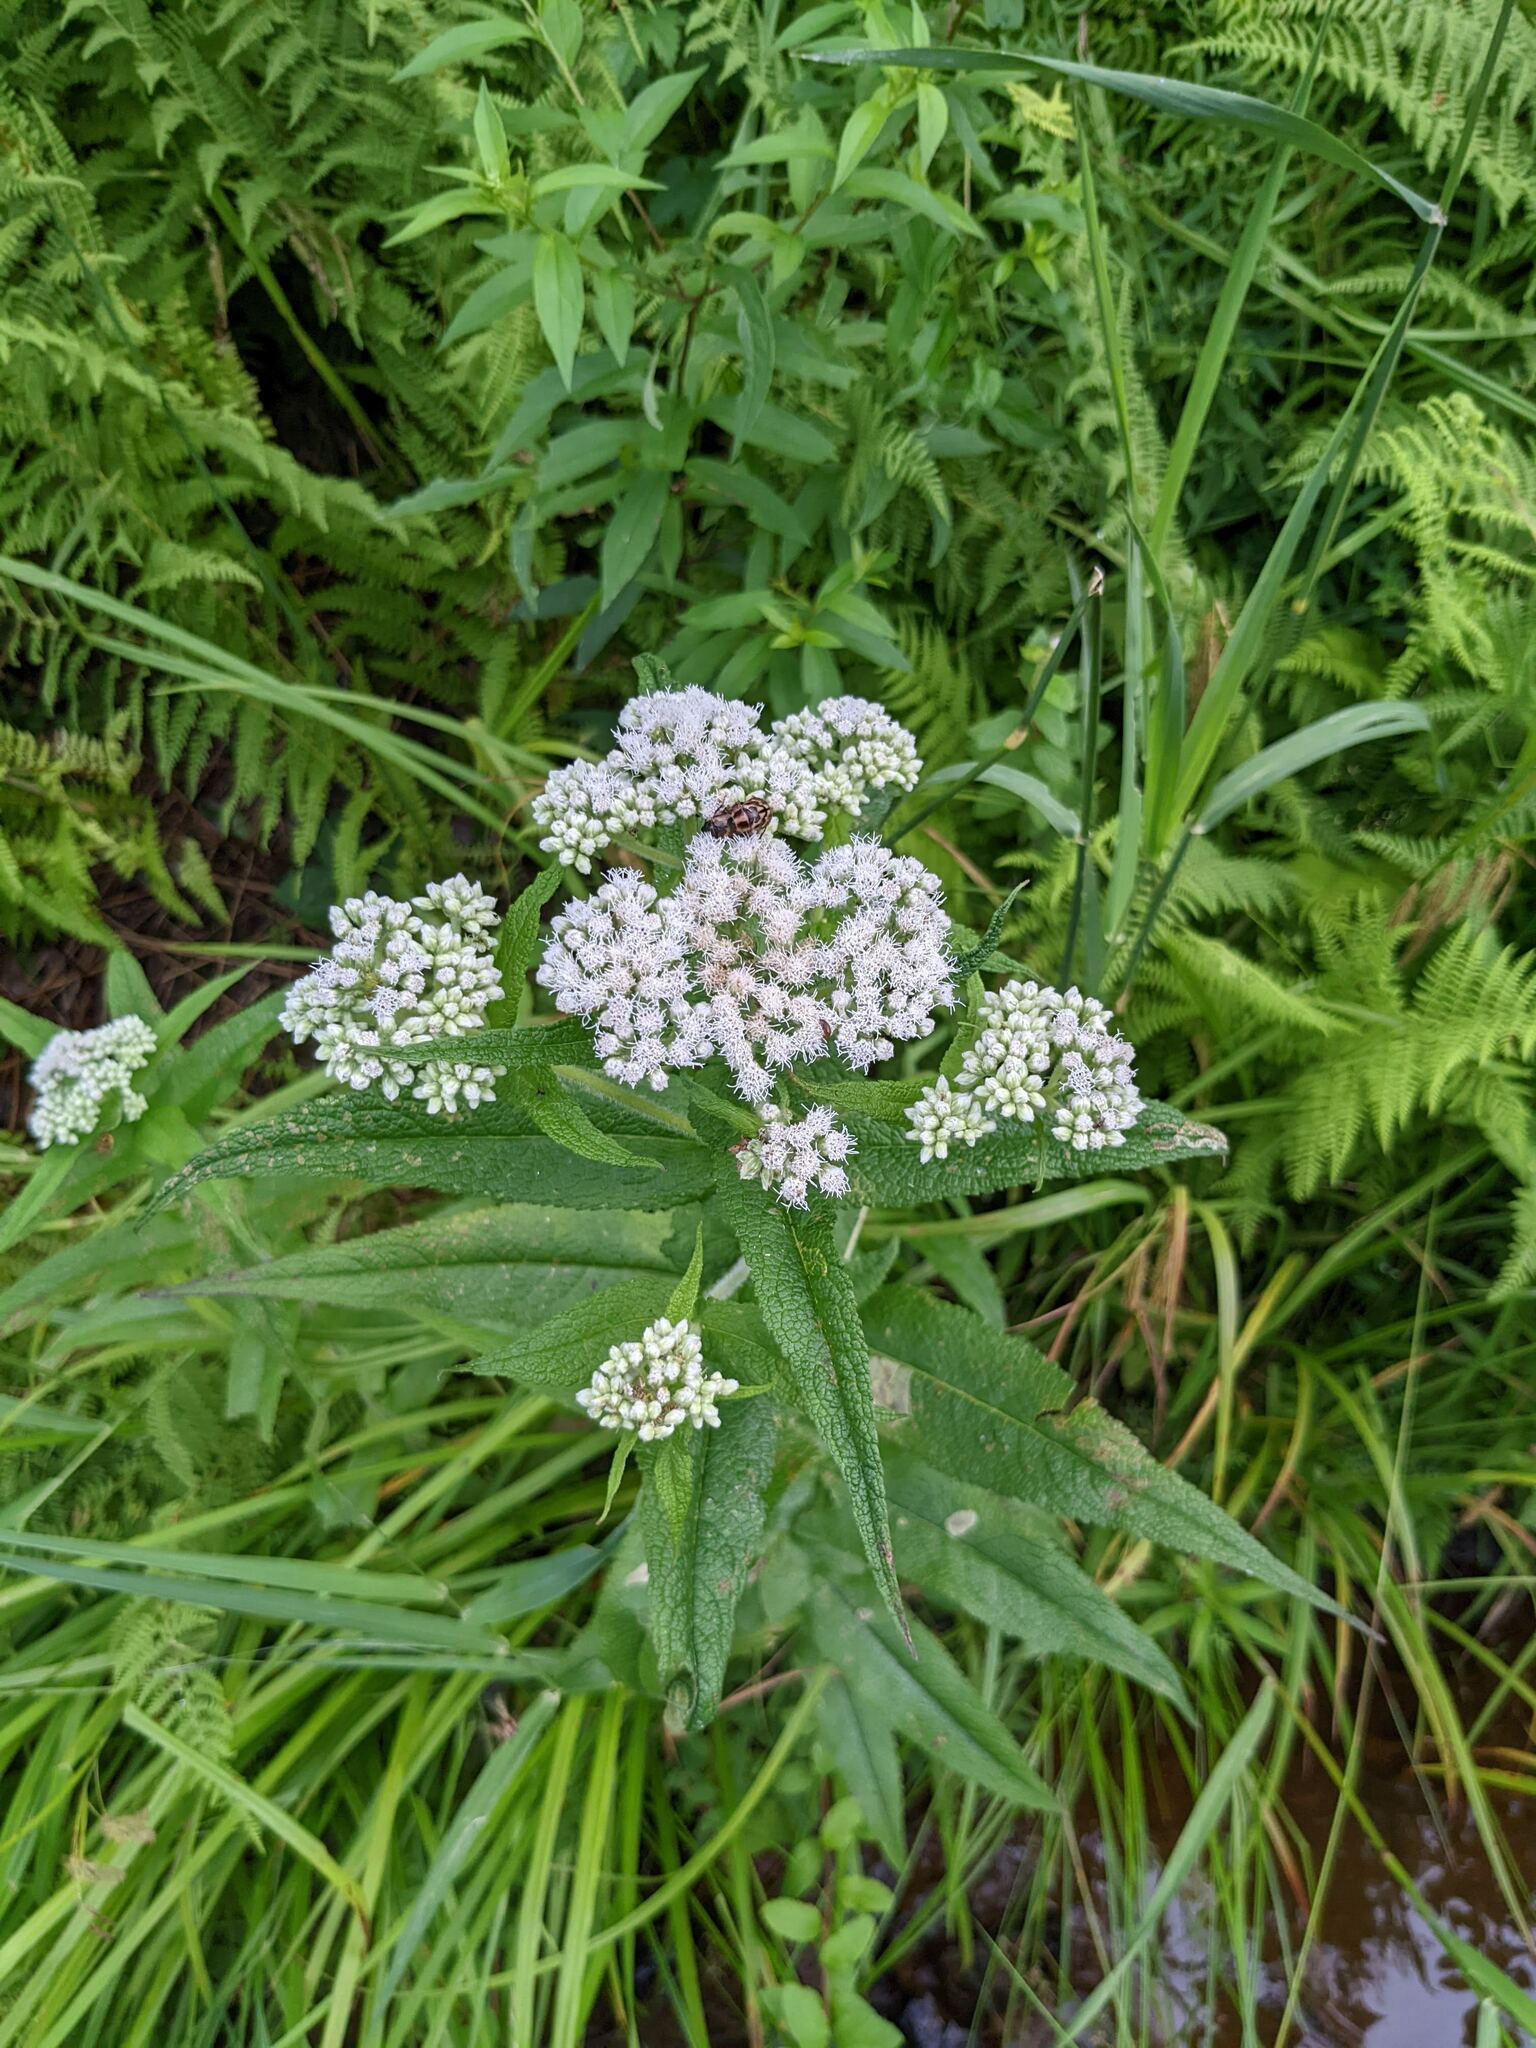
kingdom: Plantae
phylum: Tracheophyta
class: Magnoliopsida
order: Asterales
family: Asteraceae
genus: Eupatorium
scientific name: Eupatorium perfoliatum
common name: Boneset
